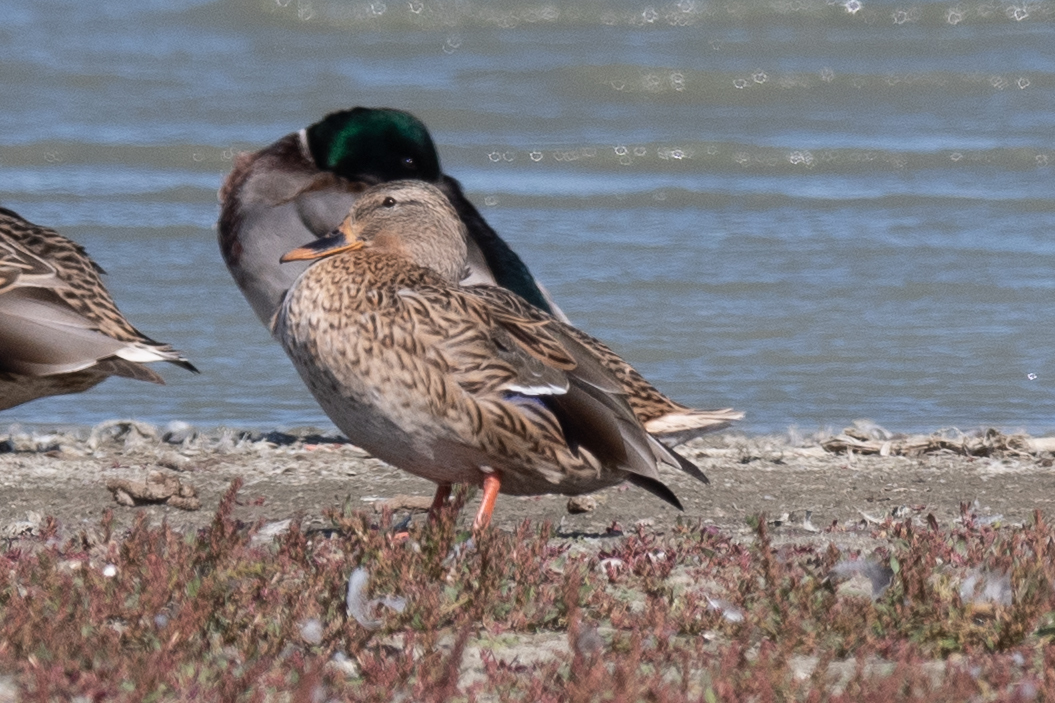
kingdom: Animalia
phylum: Chordata
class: Aves
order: Anseriformes
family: Anatidae
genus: Anas
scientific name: Anas platyrhynchos
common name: Mallard
